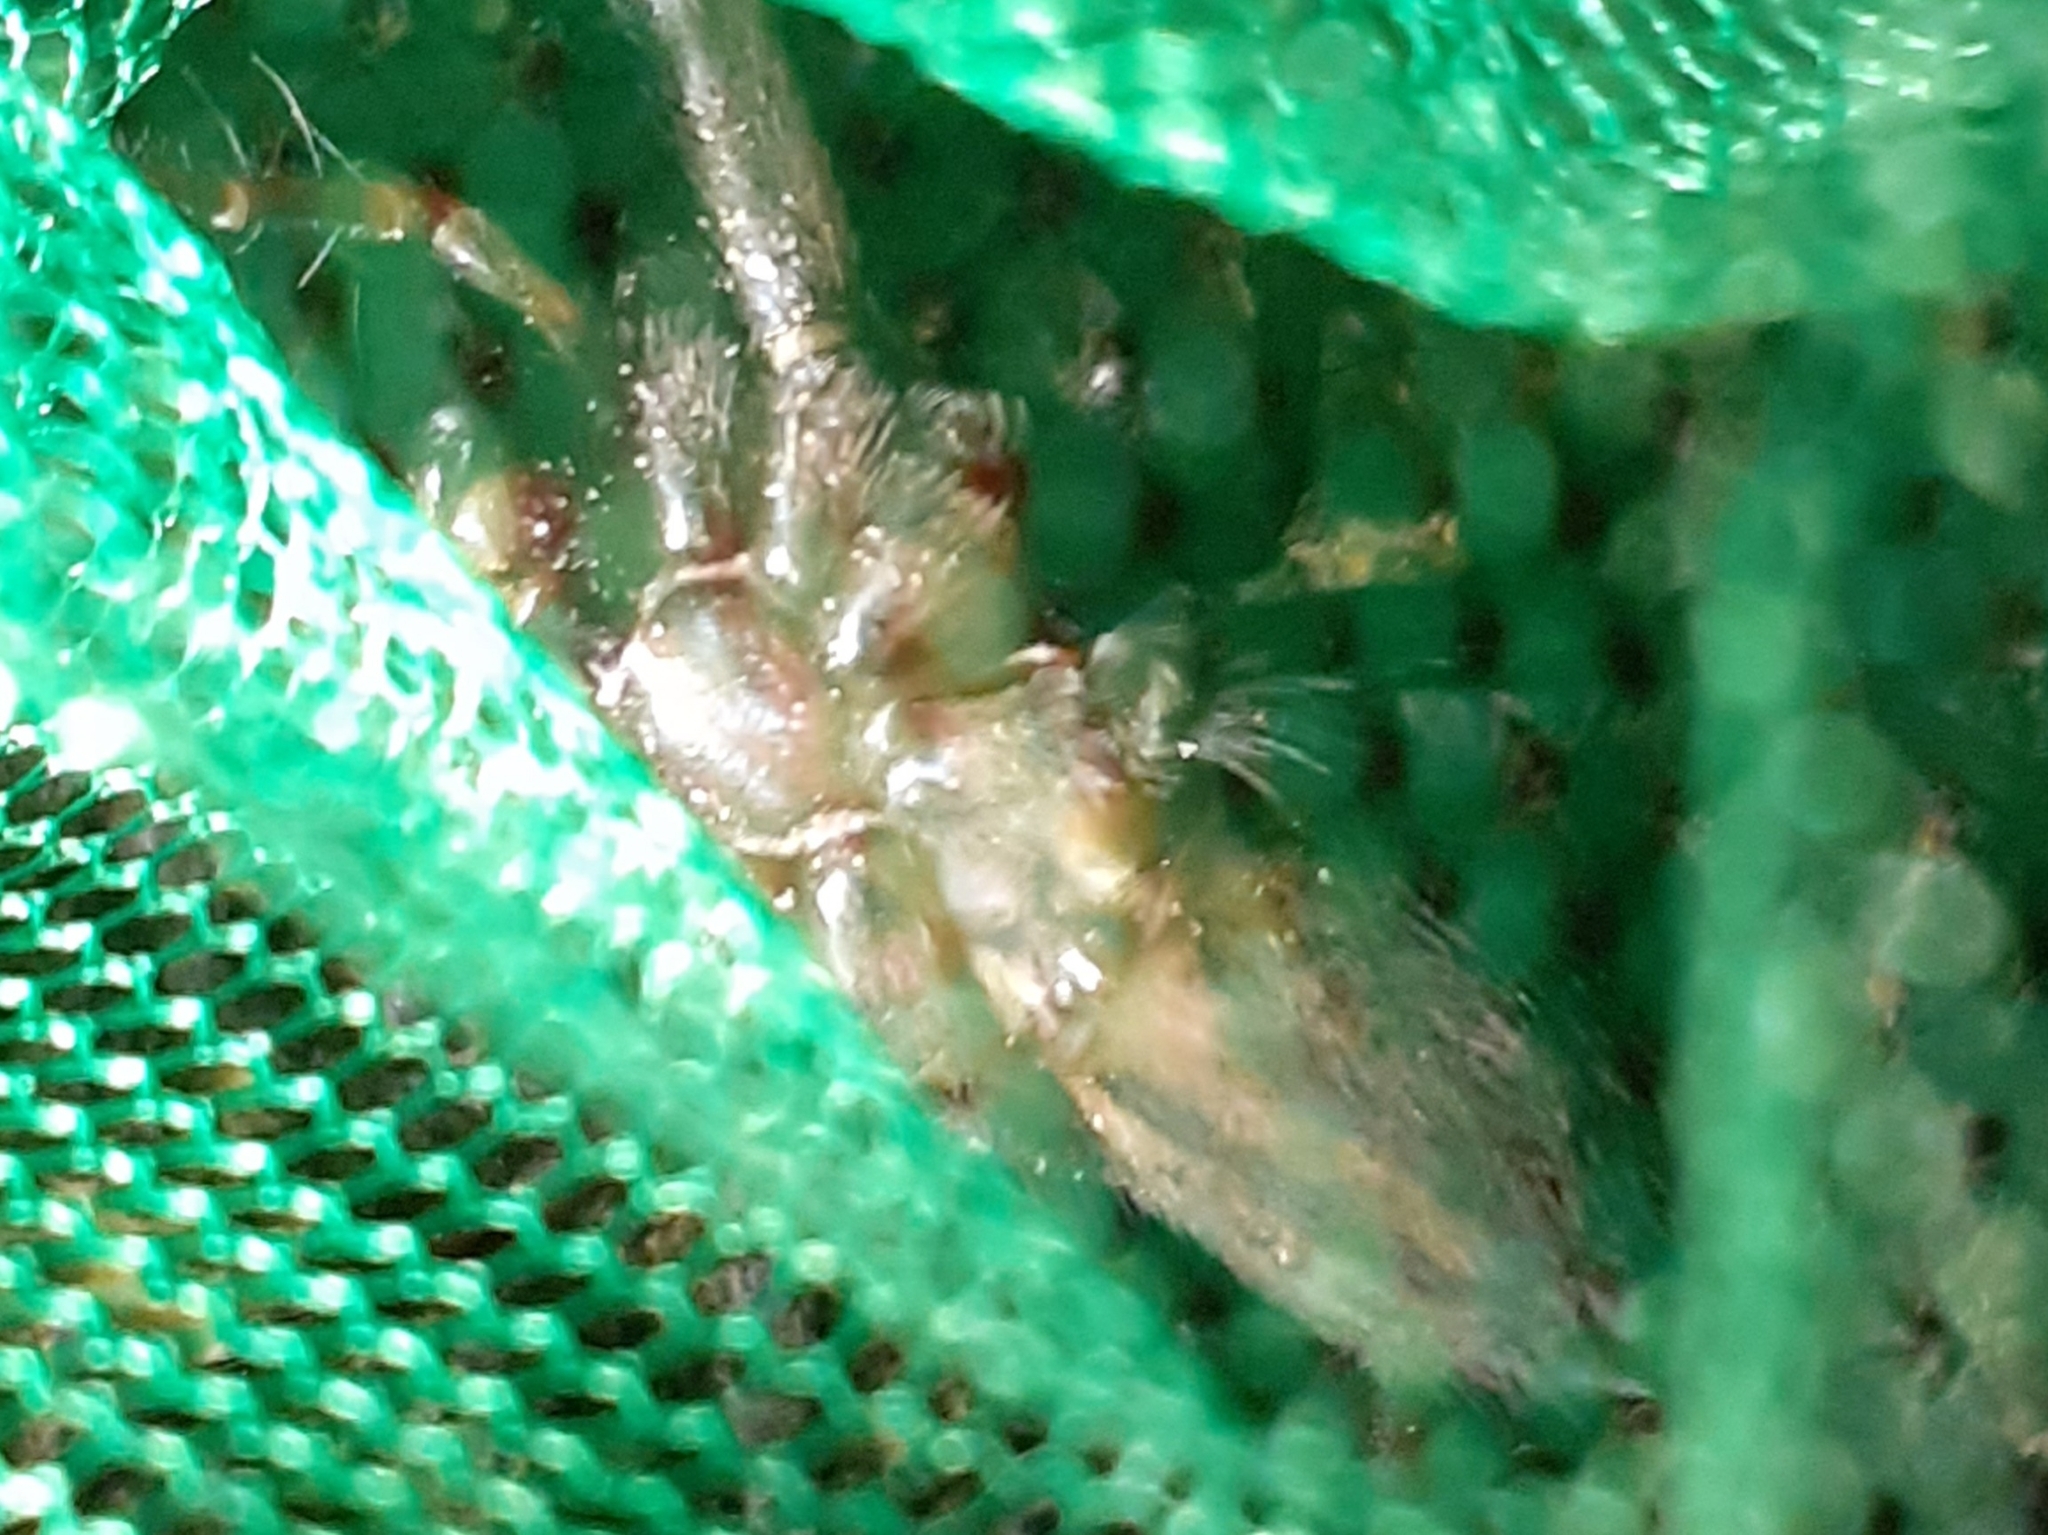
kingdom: Animalia
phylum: Arthropoda
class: Arachnida
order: Araneae
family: Agelenidae
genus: Eratigena
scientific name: Eratigena atrica
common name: Giant house spider
